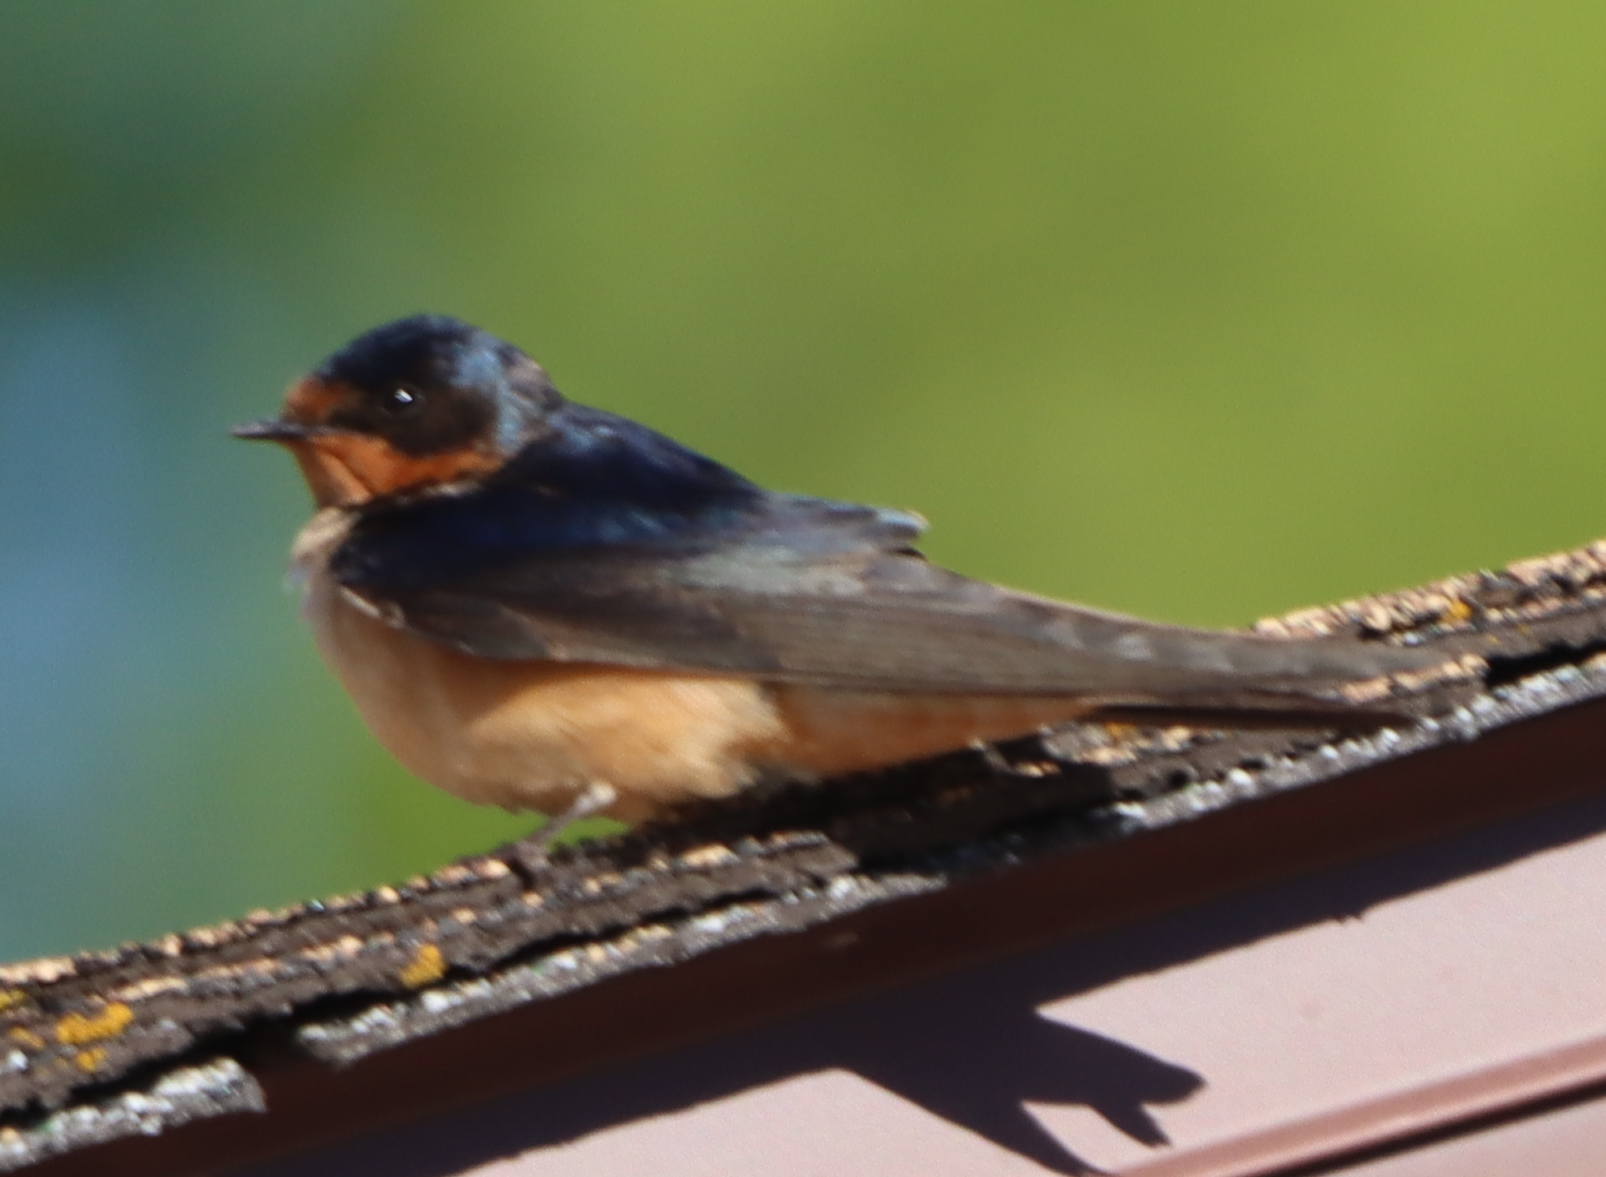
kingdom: Animalia
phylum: Chordata
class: Aves
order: Passeriformes
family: Hirundinidae
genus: Hirundo
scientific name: Hirundo rustica
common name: Barn swallow
